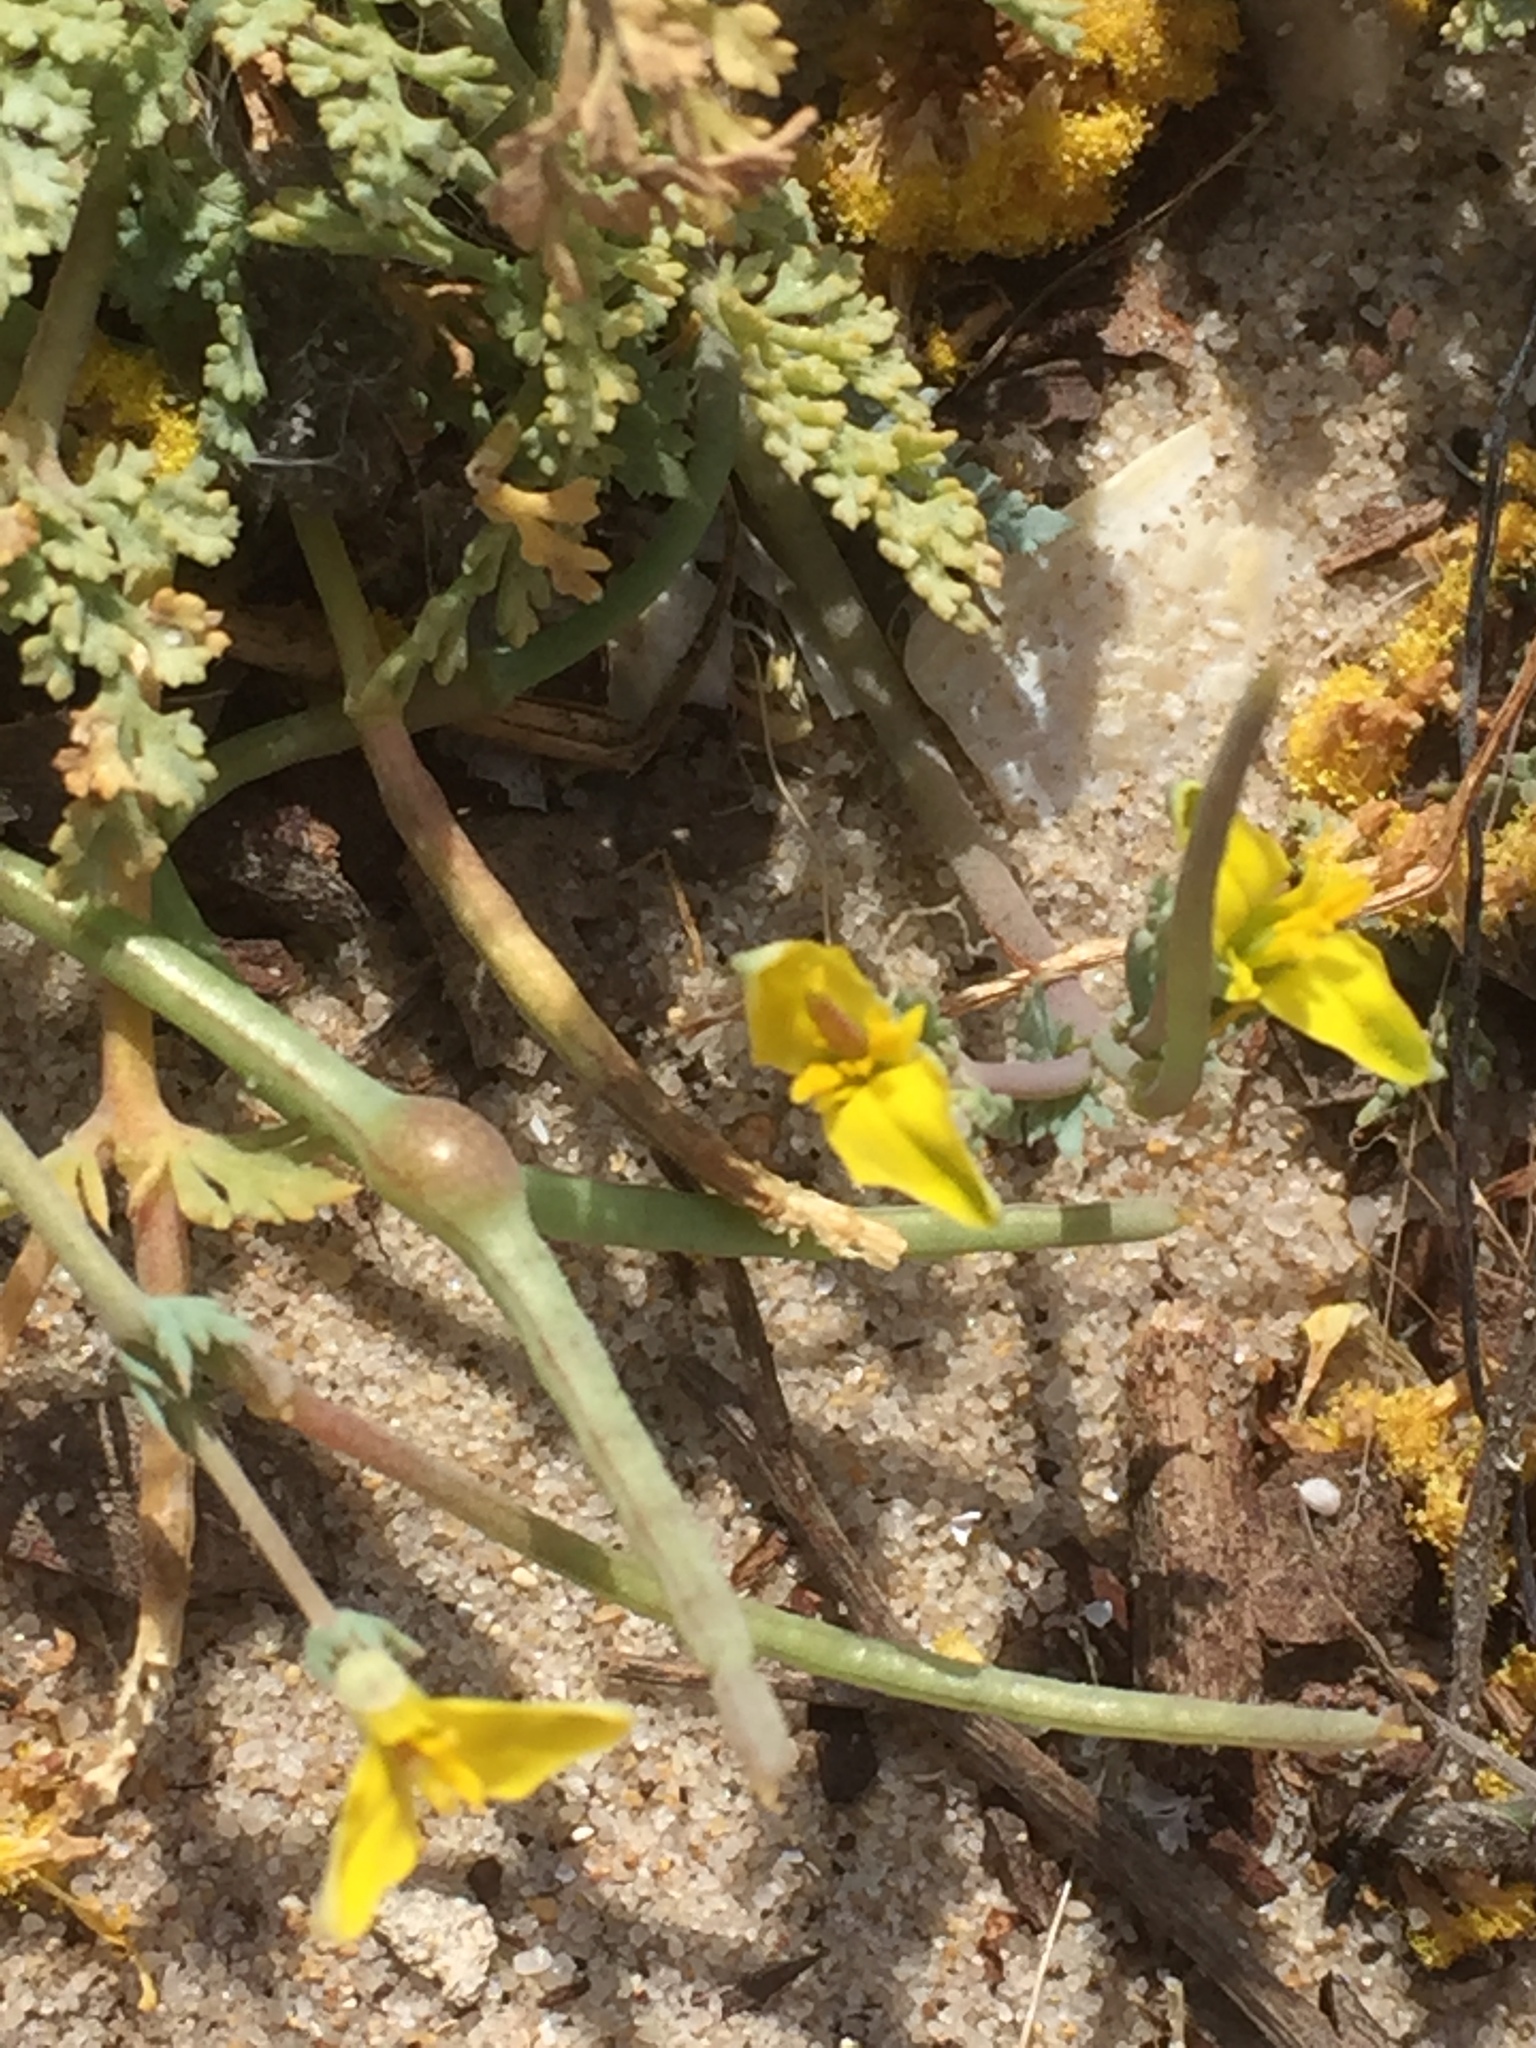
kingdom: Plantae
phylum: Tracheophyta
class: Magnoliopsida
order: Ranunculales
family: Papaveraceae
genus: Hypecoum
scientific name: Hypecoum littorale
